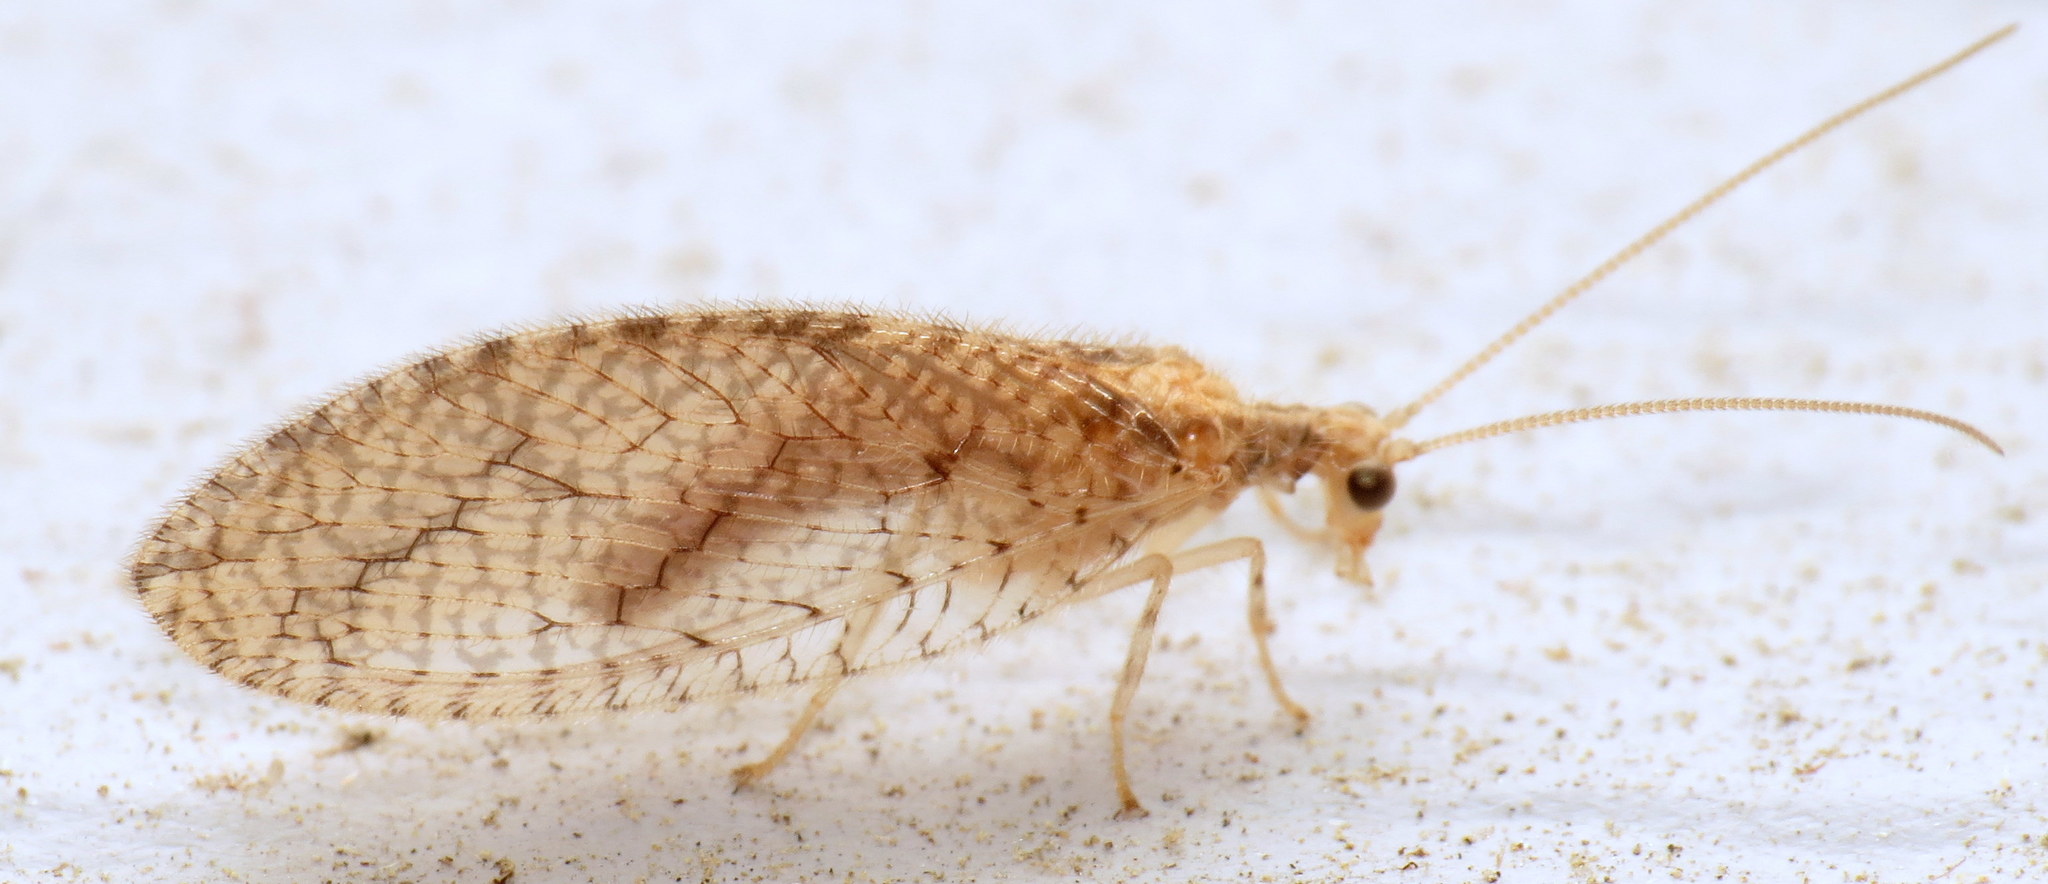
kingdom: Animalia
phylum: Arthropoda
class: Insecta
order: Neuroptera
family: Hemerobiidae
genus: Micromus
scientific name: Micromus posticus
